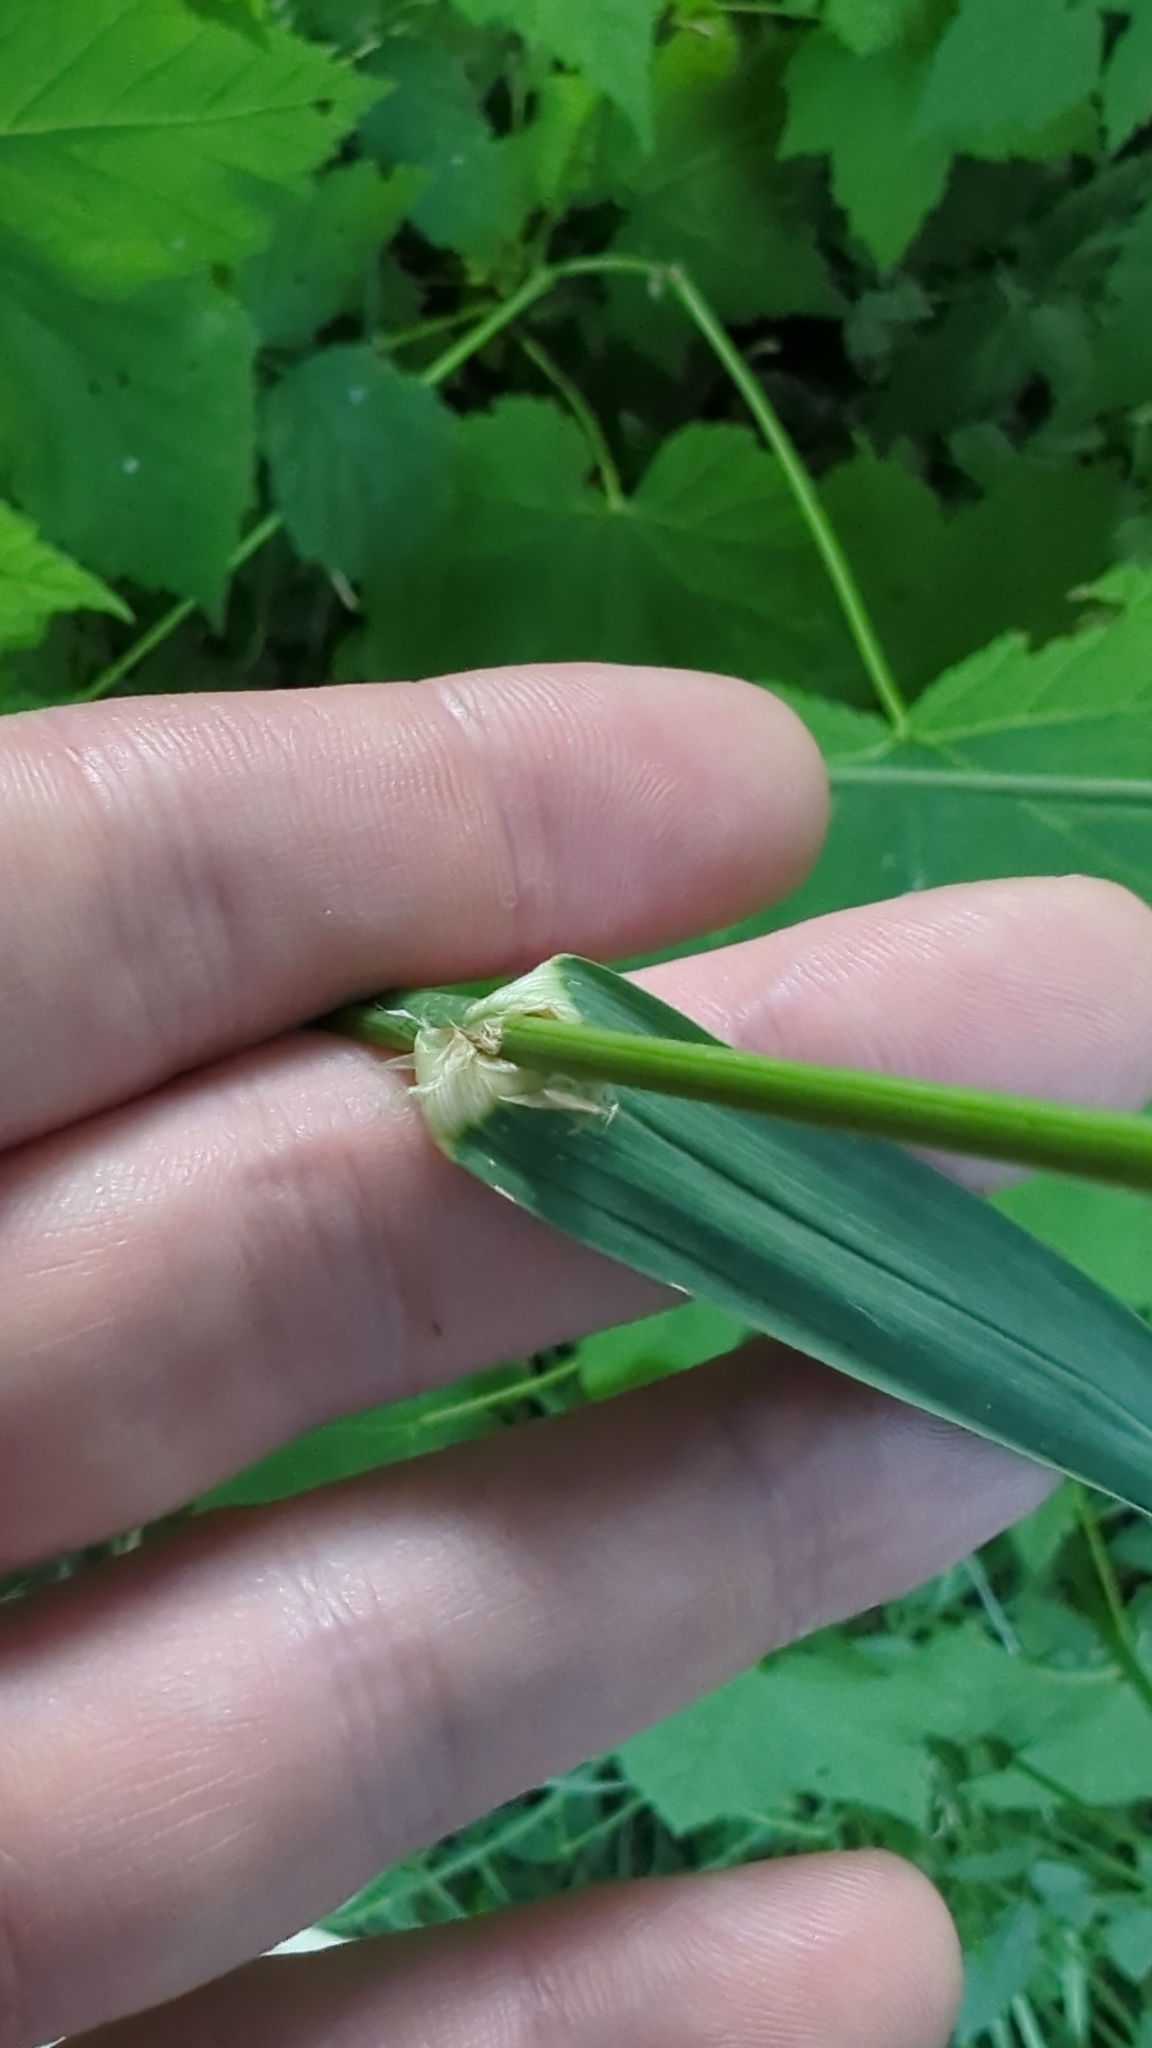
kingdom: Plantae
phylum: Tracheophyta
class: Liliopsida
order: Poales
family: Poaceae
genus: Dactylis
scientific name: Dactylis glomerata
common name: Orchardgrass
